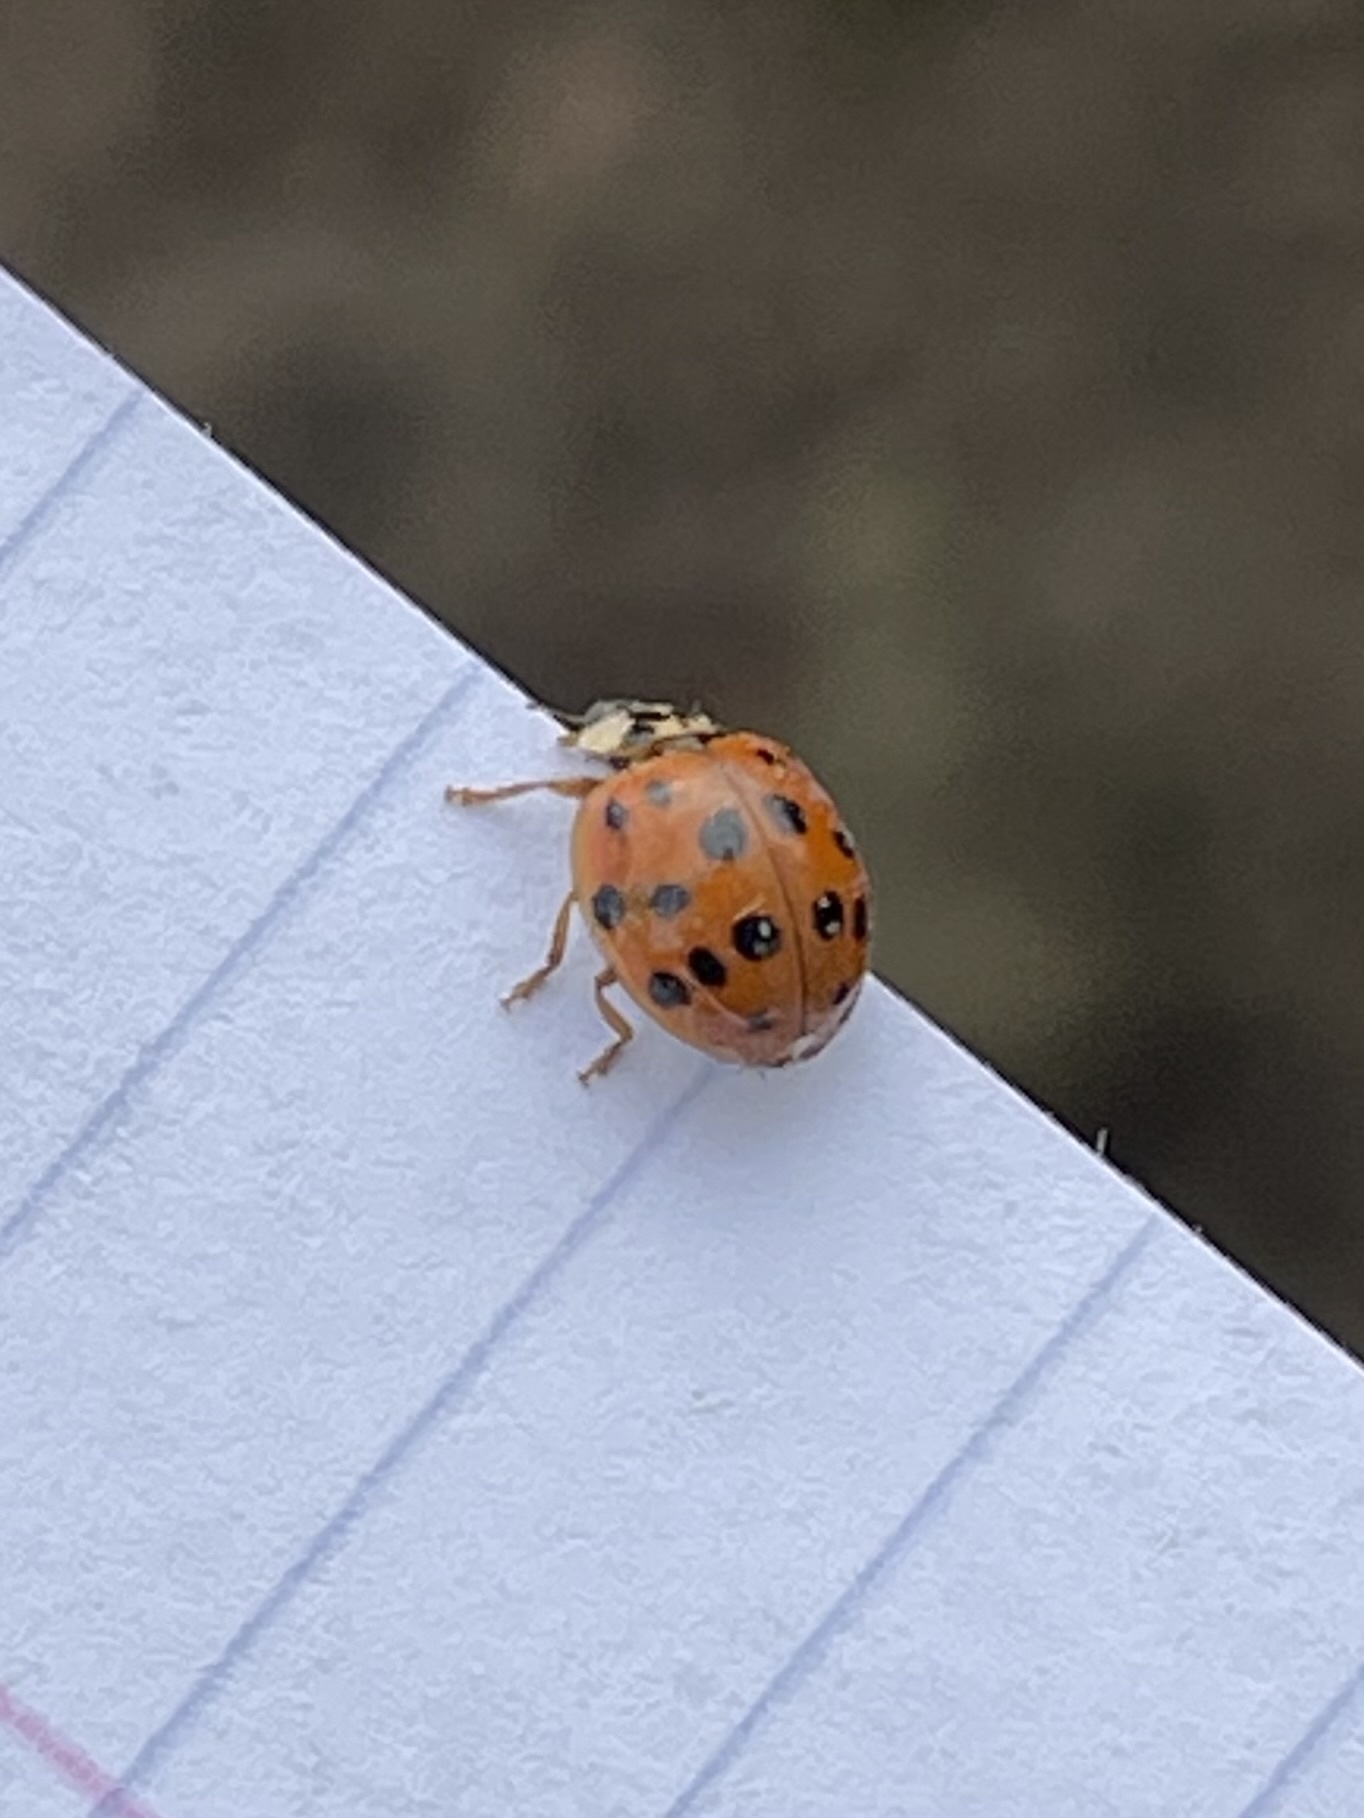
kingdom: Animalia
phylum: Arthropoda
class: Insecta
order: Coleoptera
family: Coccinellidae
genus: Harmonia
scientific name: Harmonia axyridis
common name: Harlequin ladybird
